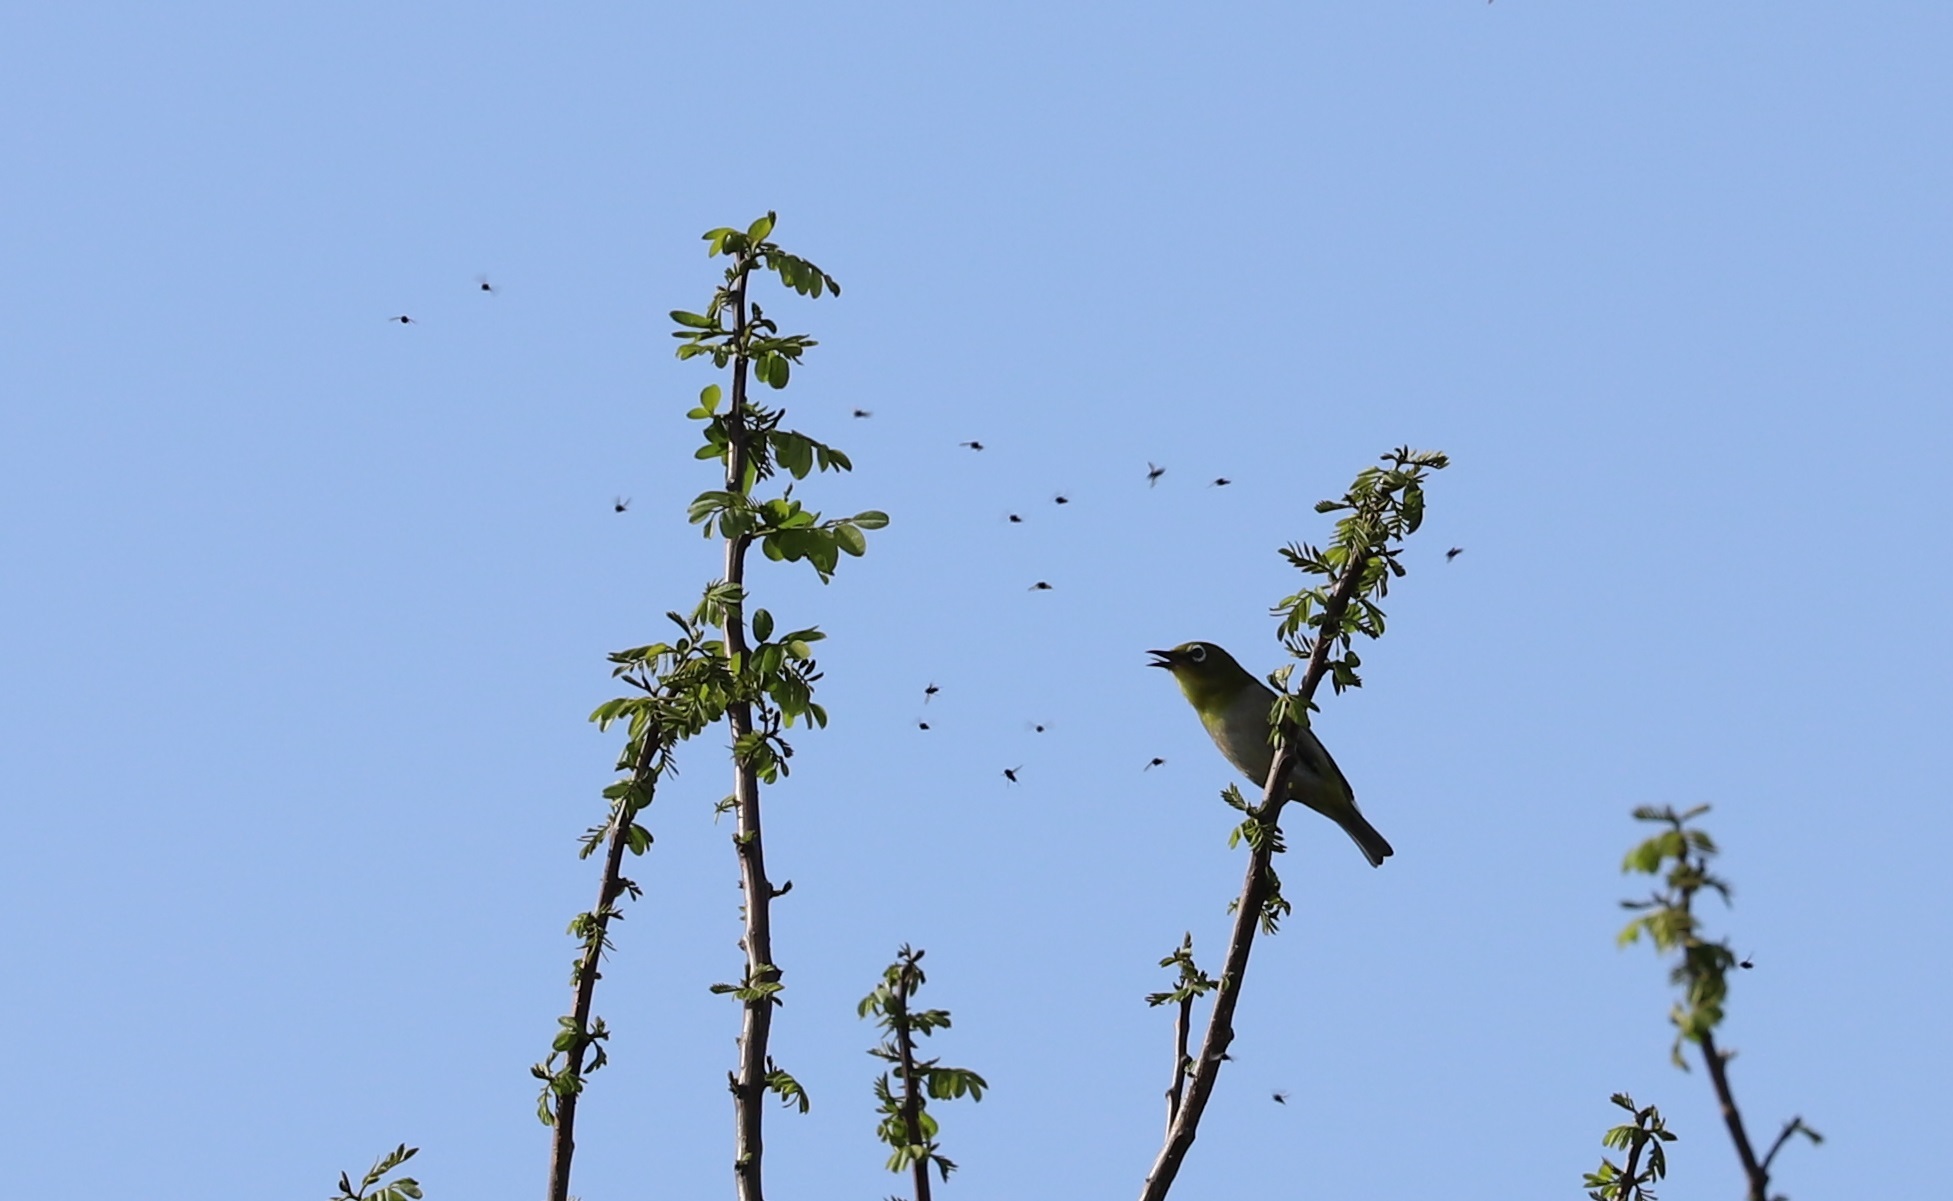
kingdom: Animalia
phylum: Chordata
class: Aves
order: Passeriformes
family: Zosteropidae
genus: Zosterops
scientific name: Zosterops japonicus
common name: Japanese white-eye
